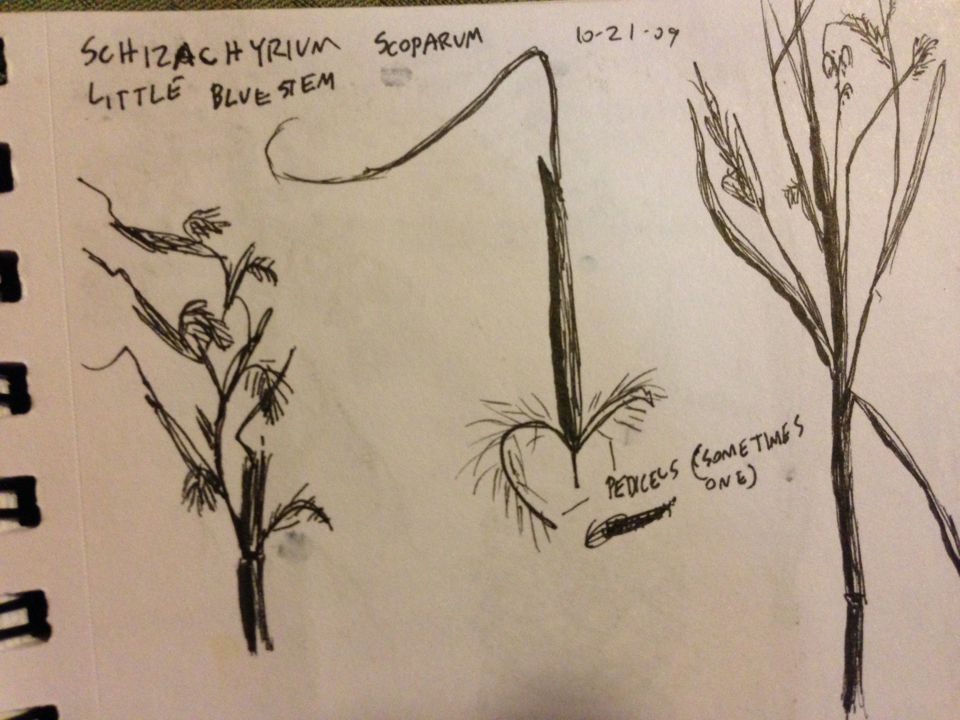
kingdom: Plantae
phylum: Tracheophyta
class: Liliopsida
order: Poales
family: Poaceae
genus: Schizachyrium
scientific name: Schizachyrium scoparium
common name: Little bluestem
